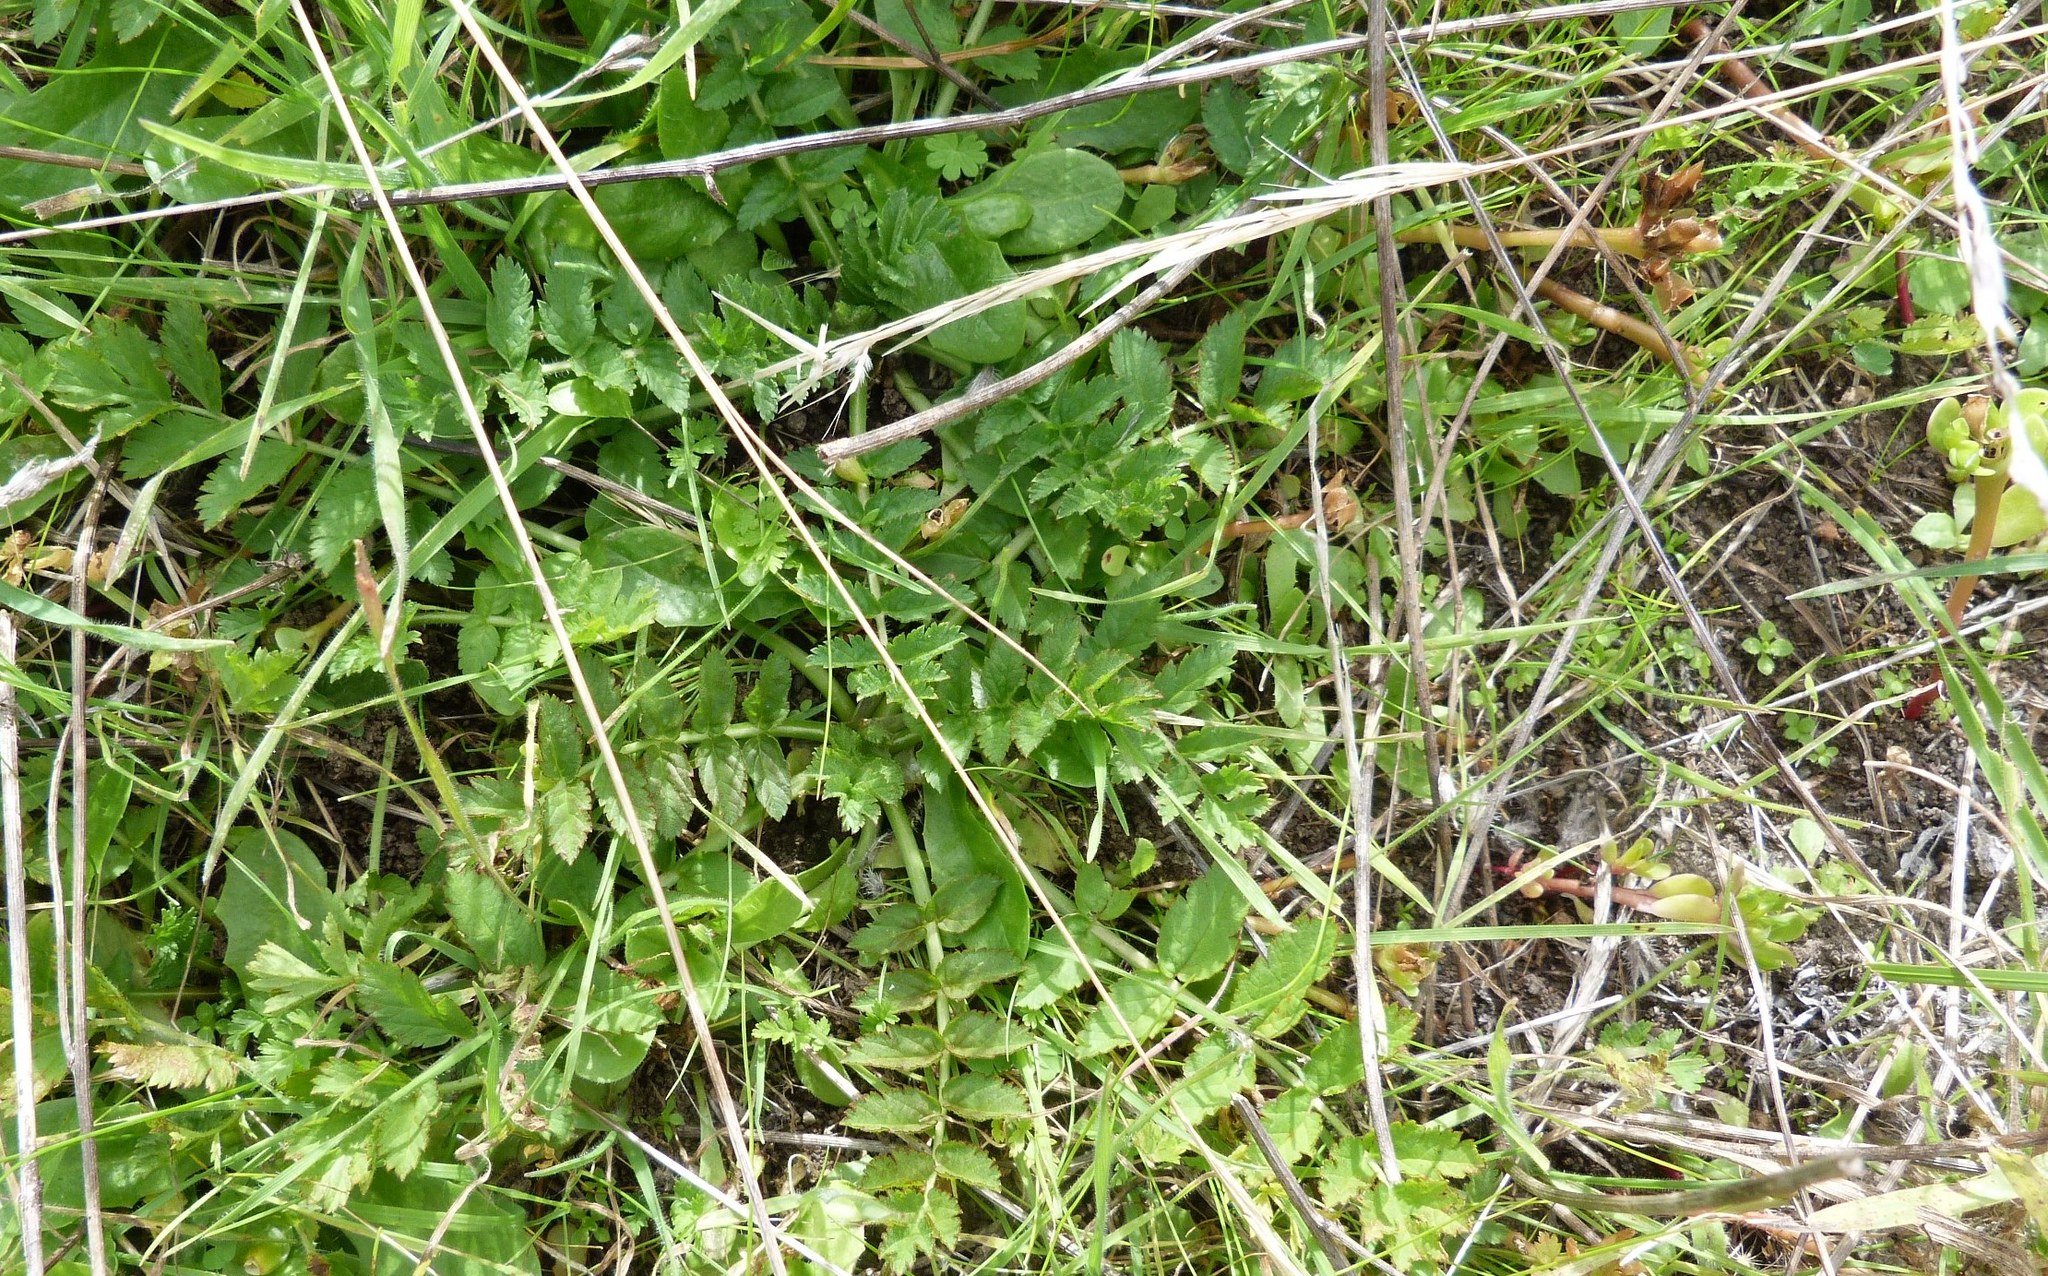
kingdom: Plantae
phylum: Tracheophyta
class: Magnoliopsida
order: Geraniales
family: Geraniaceae
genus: Erodium
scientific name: Erodium cicutarium
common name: Common stork's-bill
